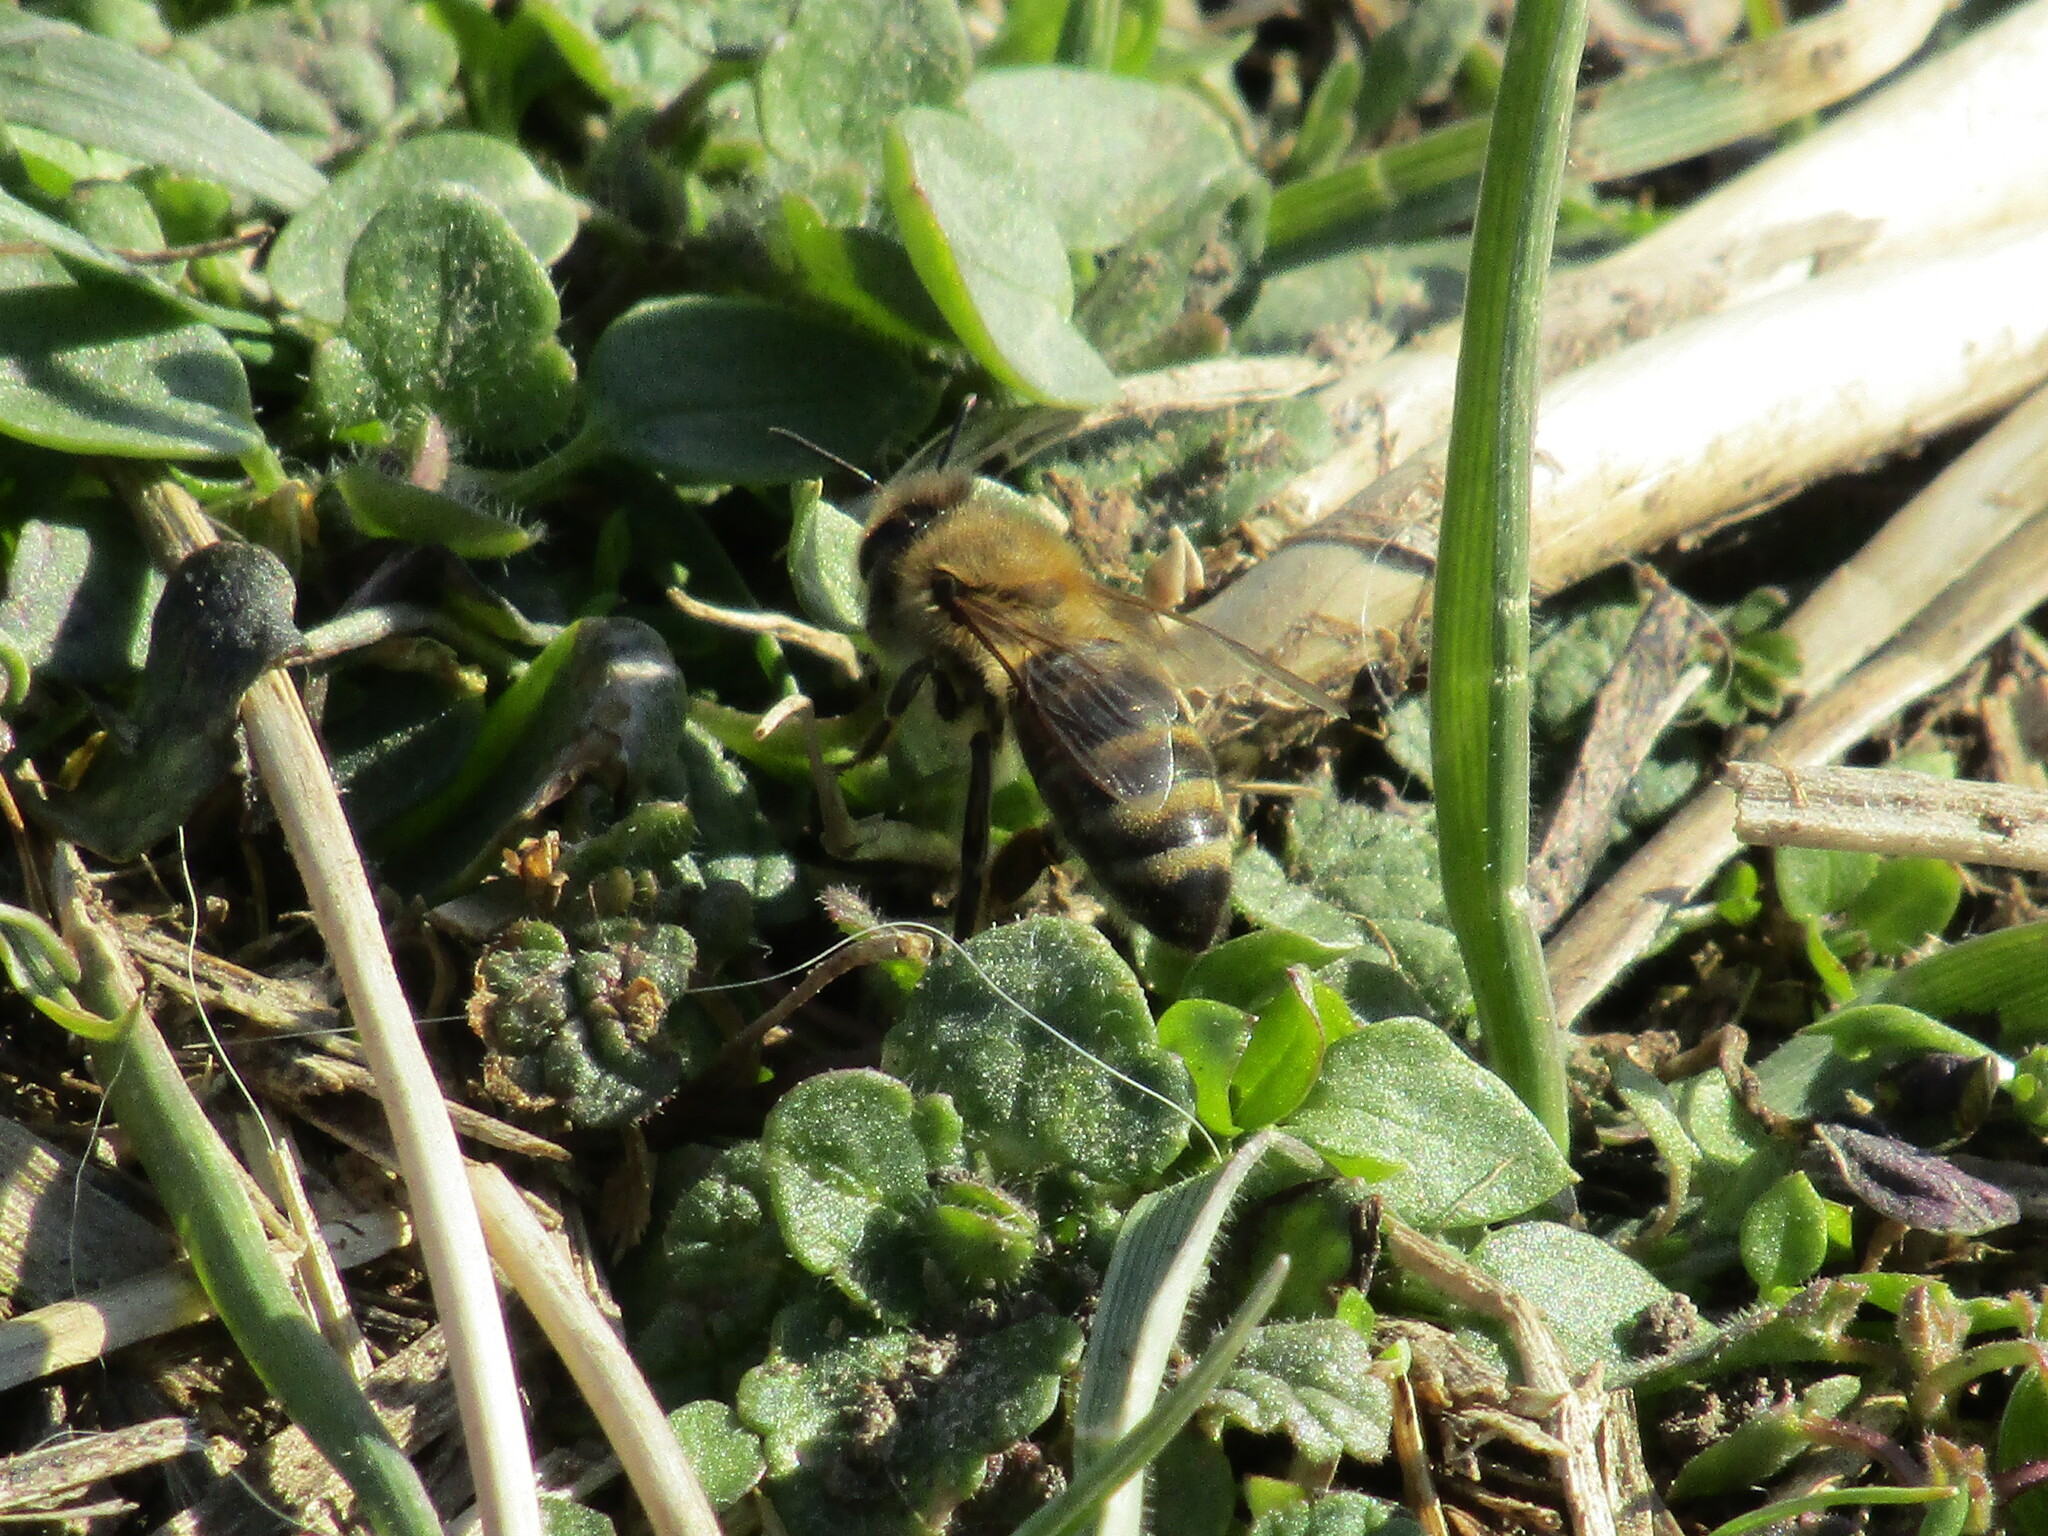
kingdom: Animalia
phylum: Arthropoda
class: Insecta
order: Hymenoptera
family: Apidae
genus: Apis
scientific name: Apis mellifera
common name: Honey bee
